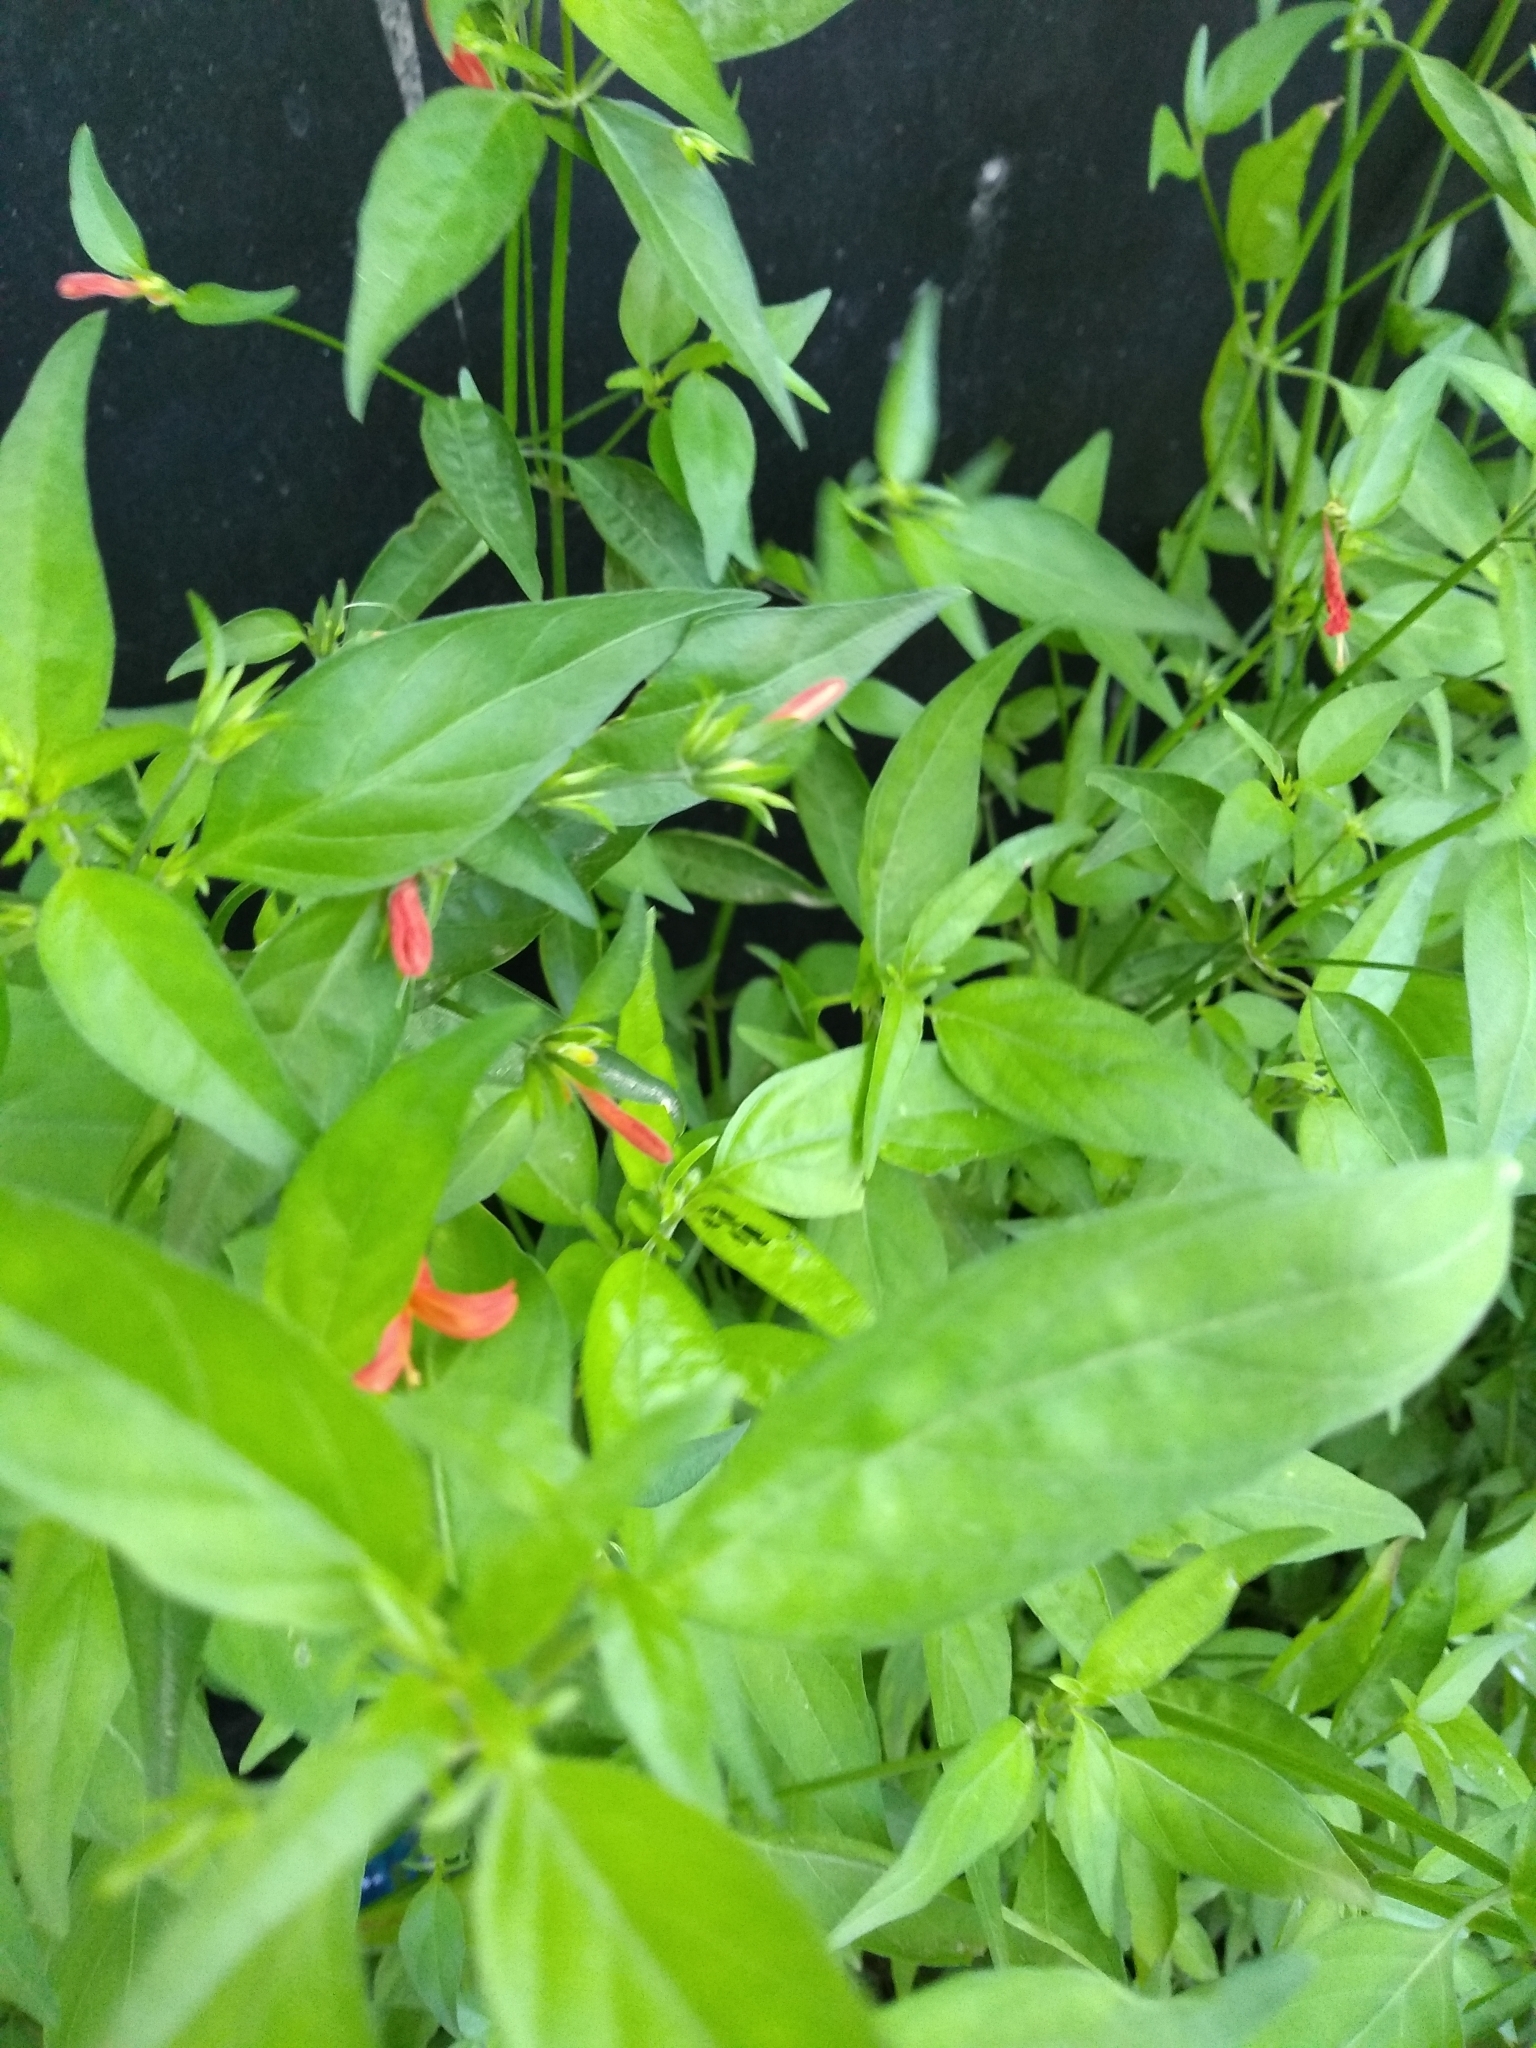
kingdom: Plantae
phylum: Tracheophyta
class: Magnoliopsida
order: Lamiales
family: Acanthaceae
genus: Dicliptera
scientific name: Dicliptera squarrosa
